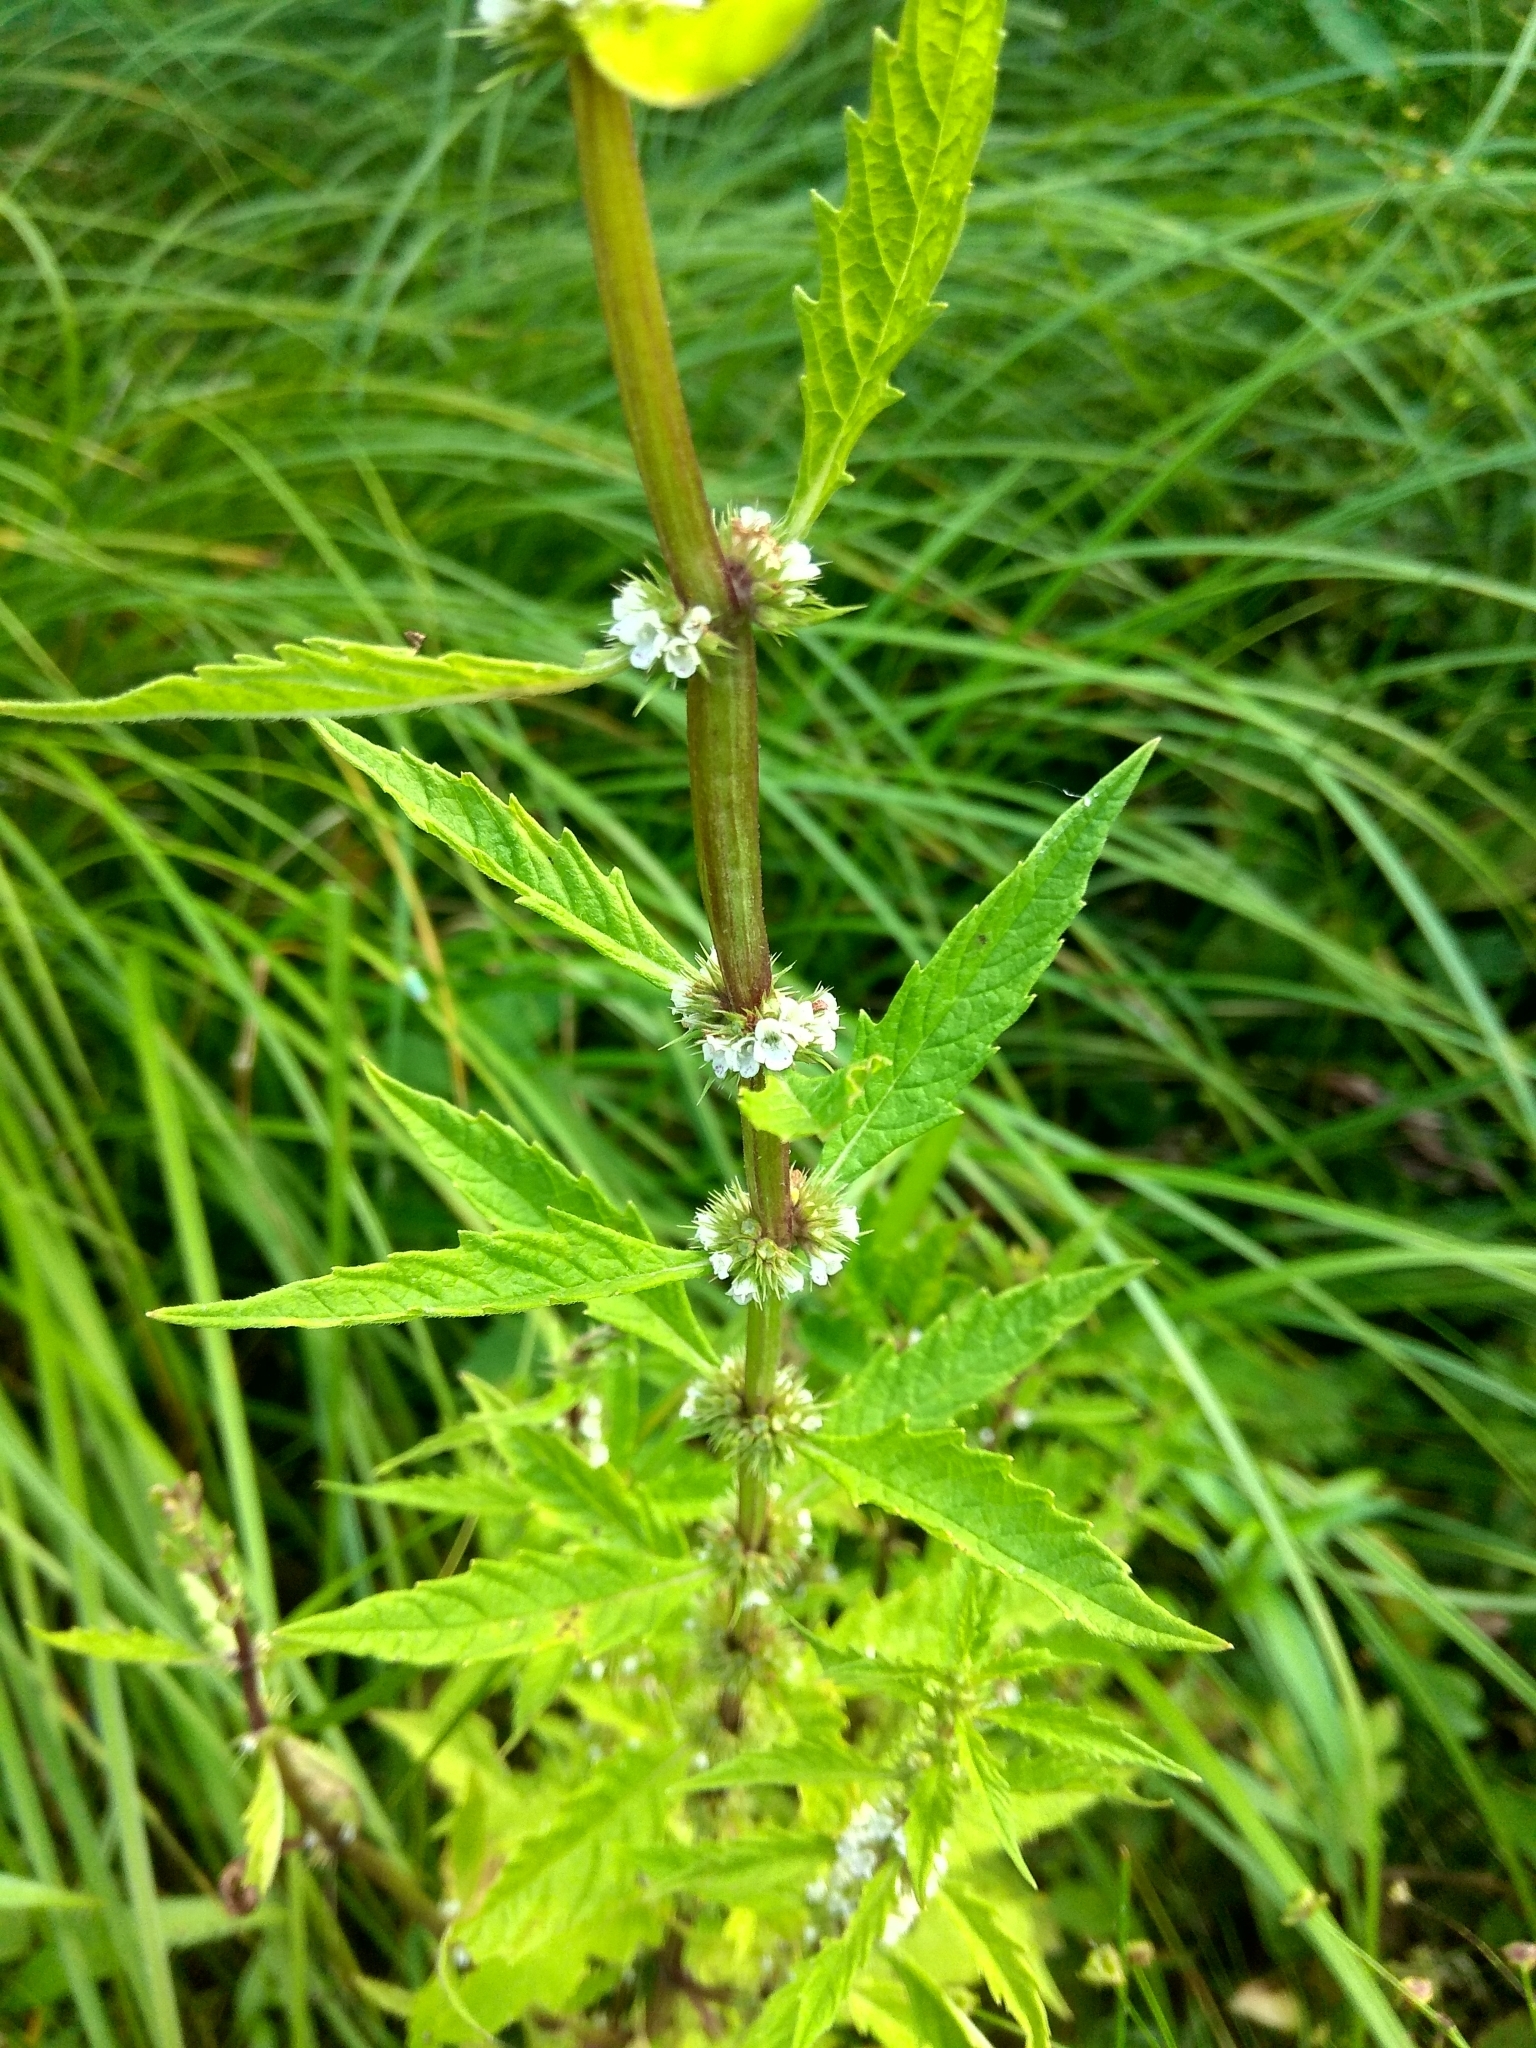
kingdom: Plantae
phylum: Tracheophyta
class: Magnoliopsida
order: Lamiales
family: Lamiaceae
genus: Lycopus
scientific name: Lycopus europaeus
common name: European bugleweed
